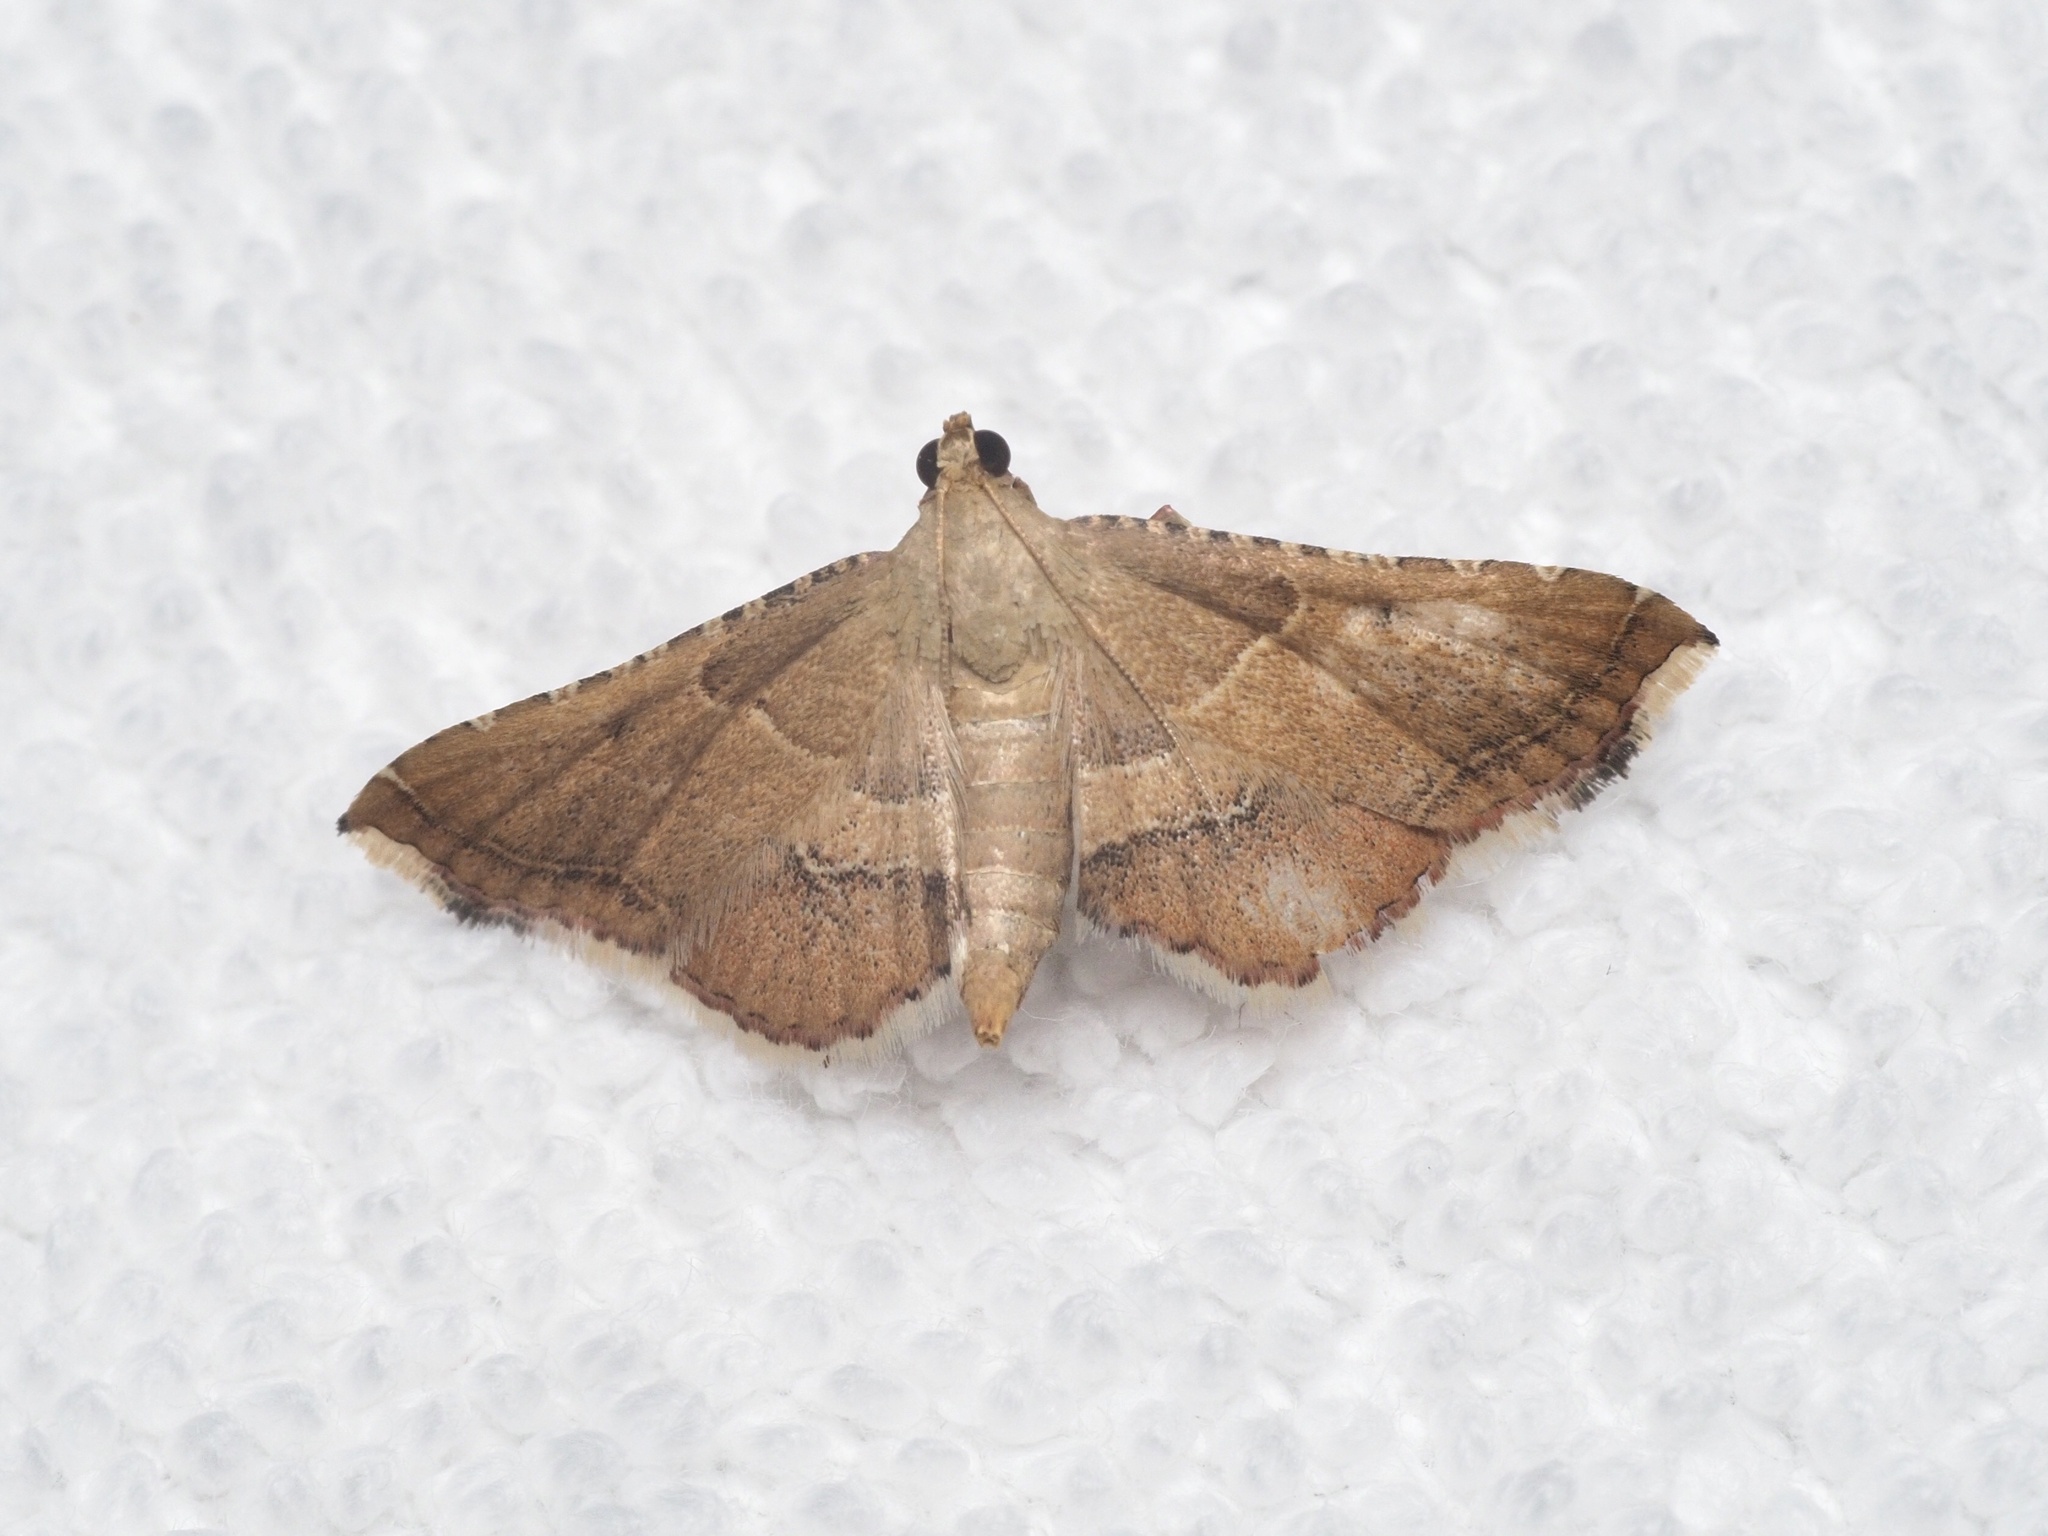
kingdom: Animalia
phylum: Arthropoda
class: Insecta
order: Lepidoptera
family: Pyralidae
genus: Endotricha
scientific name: Endotricha flammealis
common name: Rosy tabby
